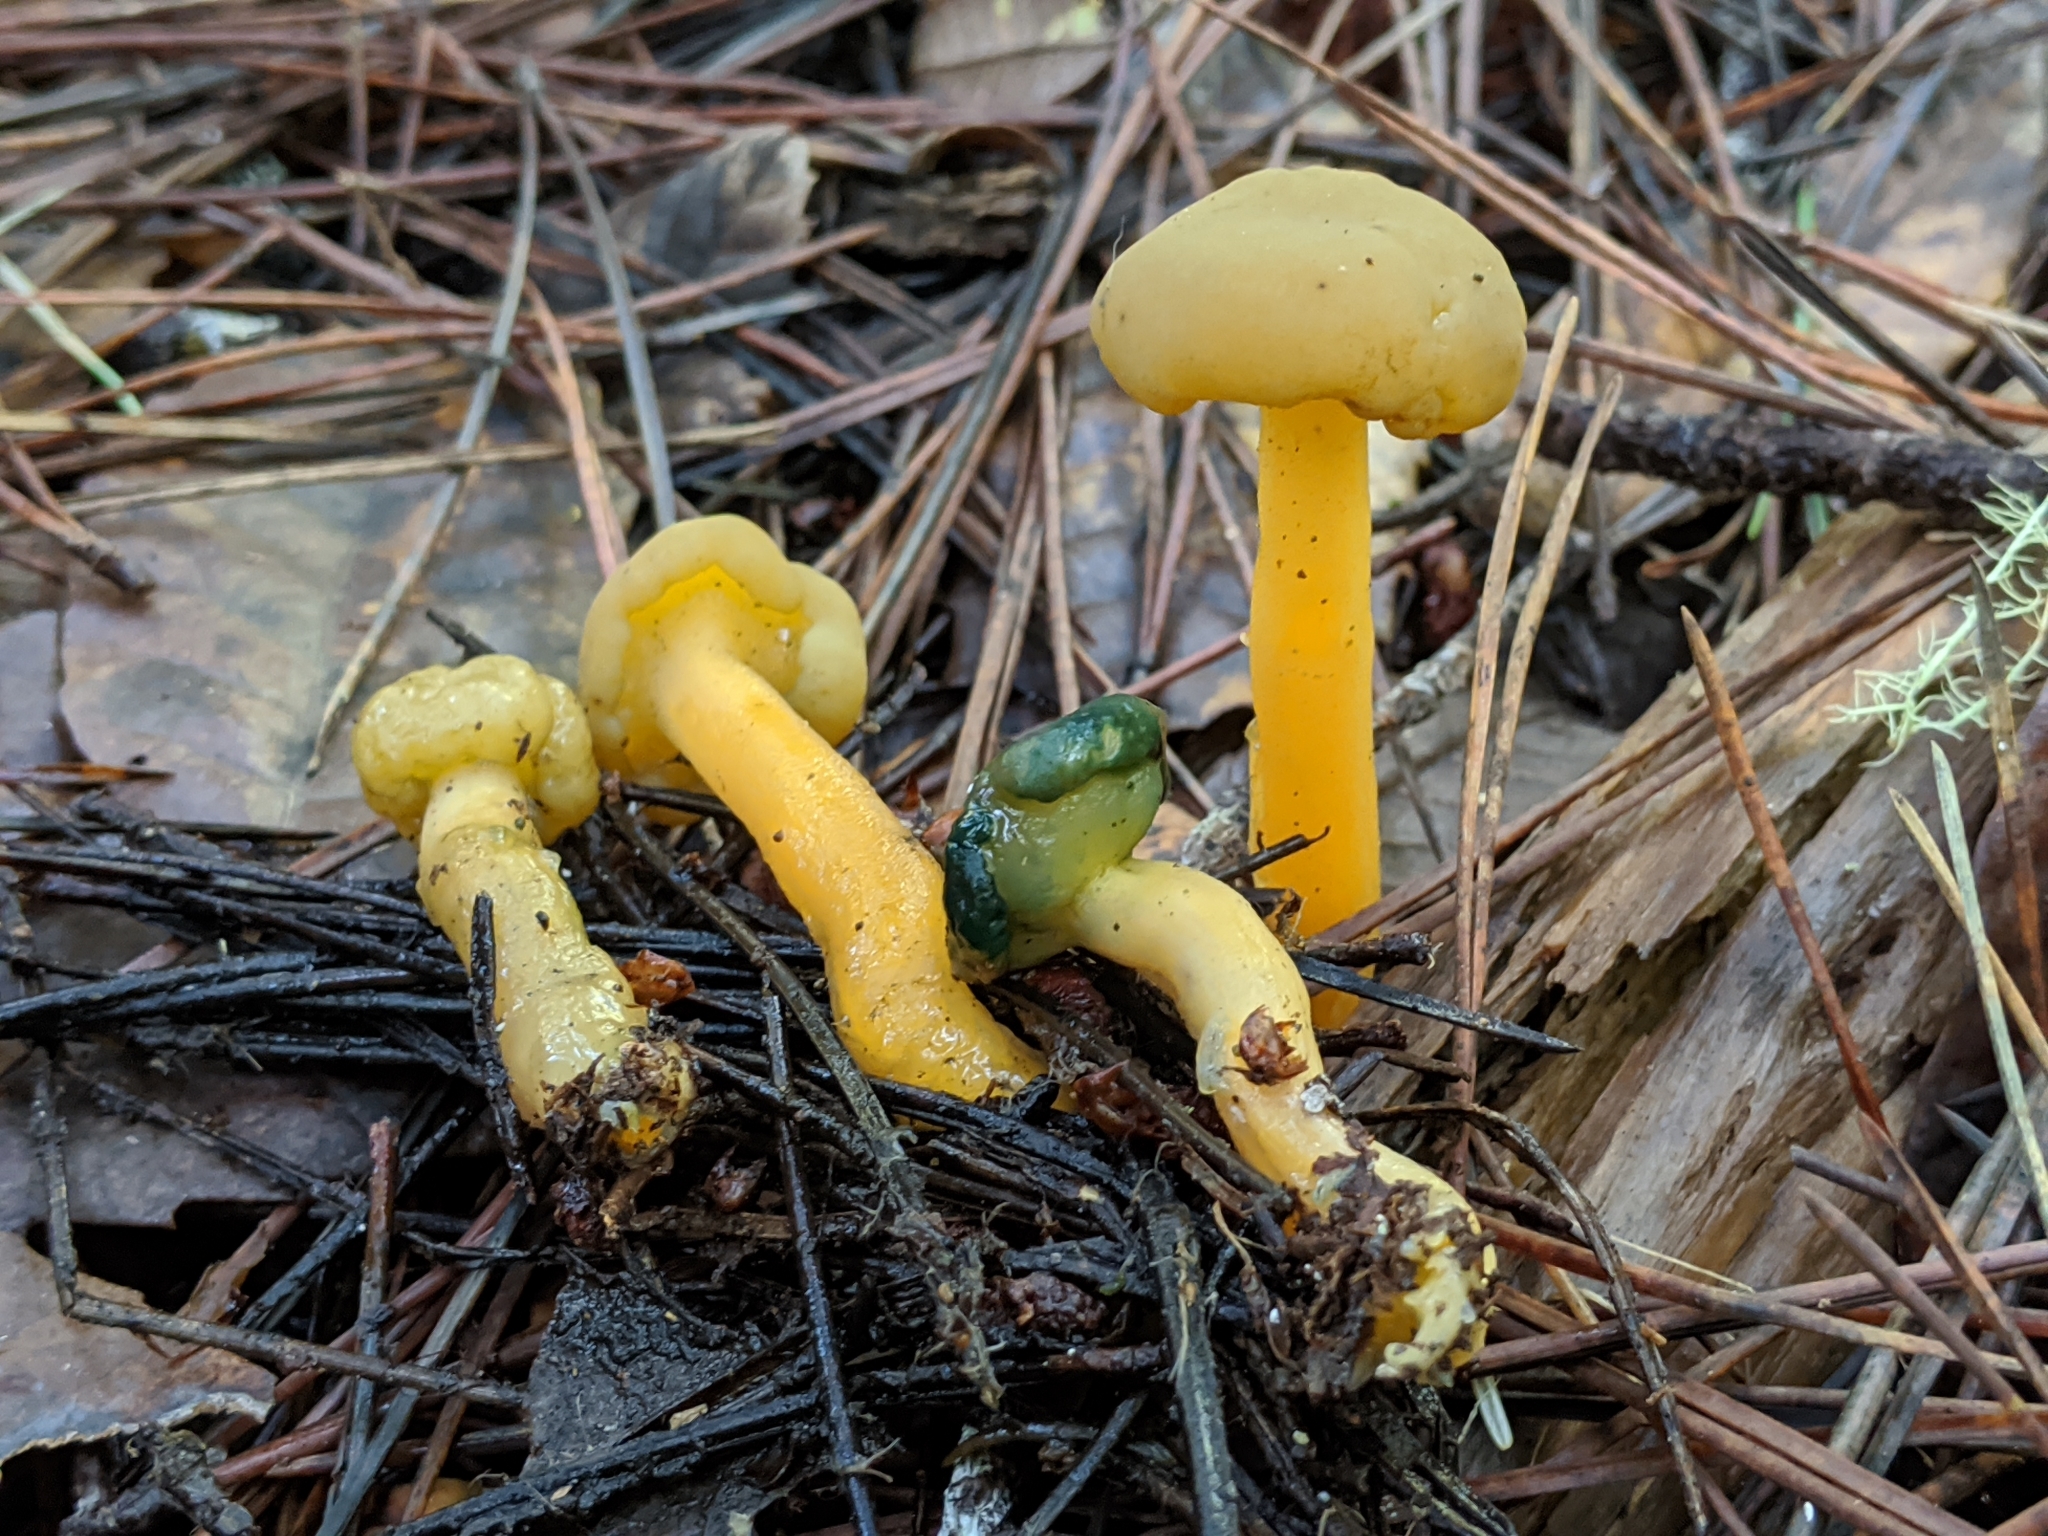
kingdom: Fungi
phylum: Ascomycota
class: Leotiomycetes
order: Leotiales
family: Leotiaceae
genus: Leotia
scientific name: Leotia lubrica
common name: Jellybaby
